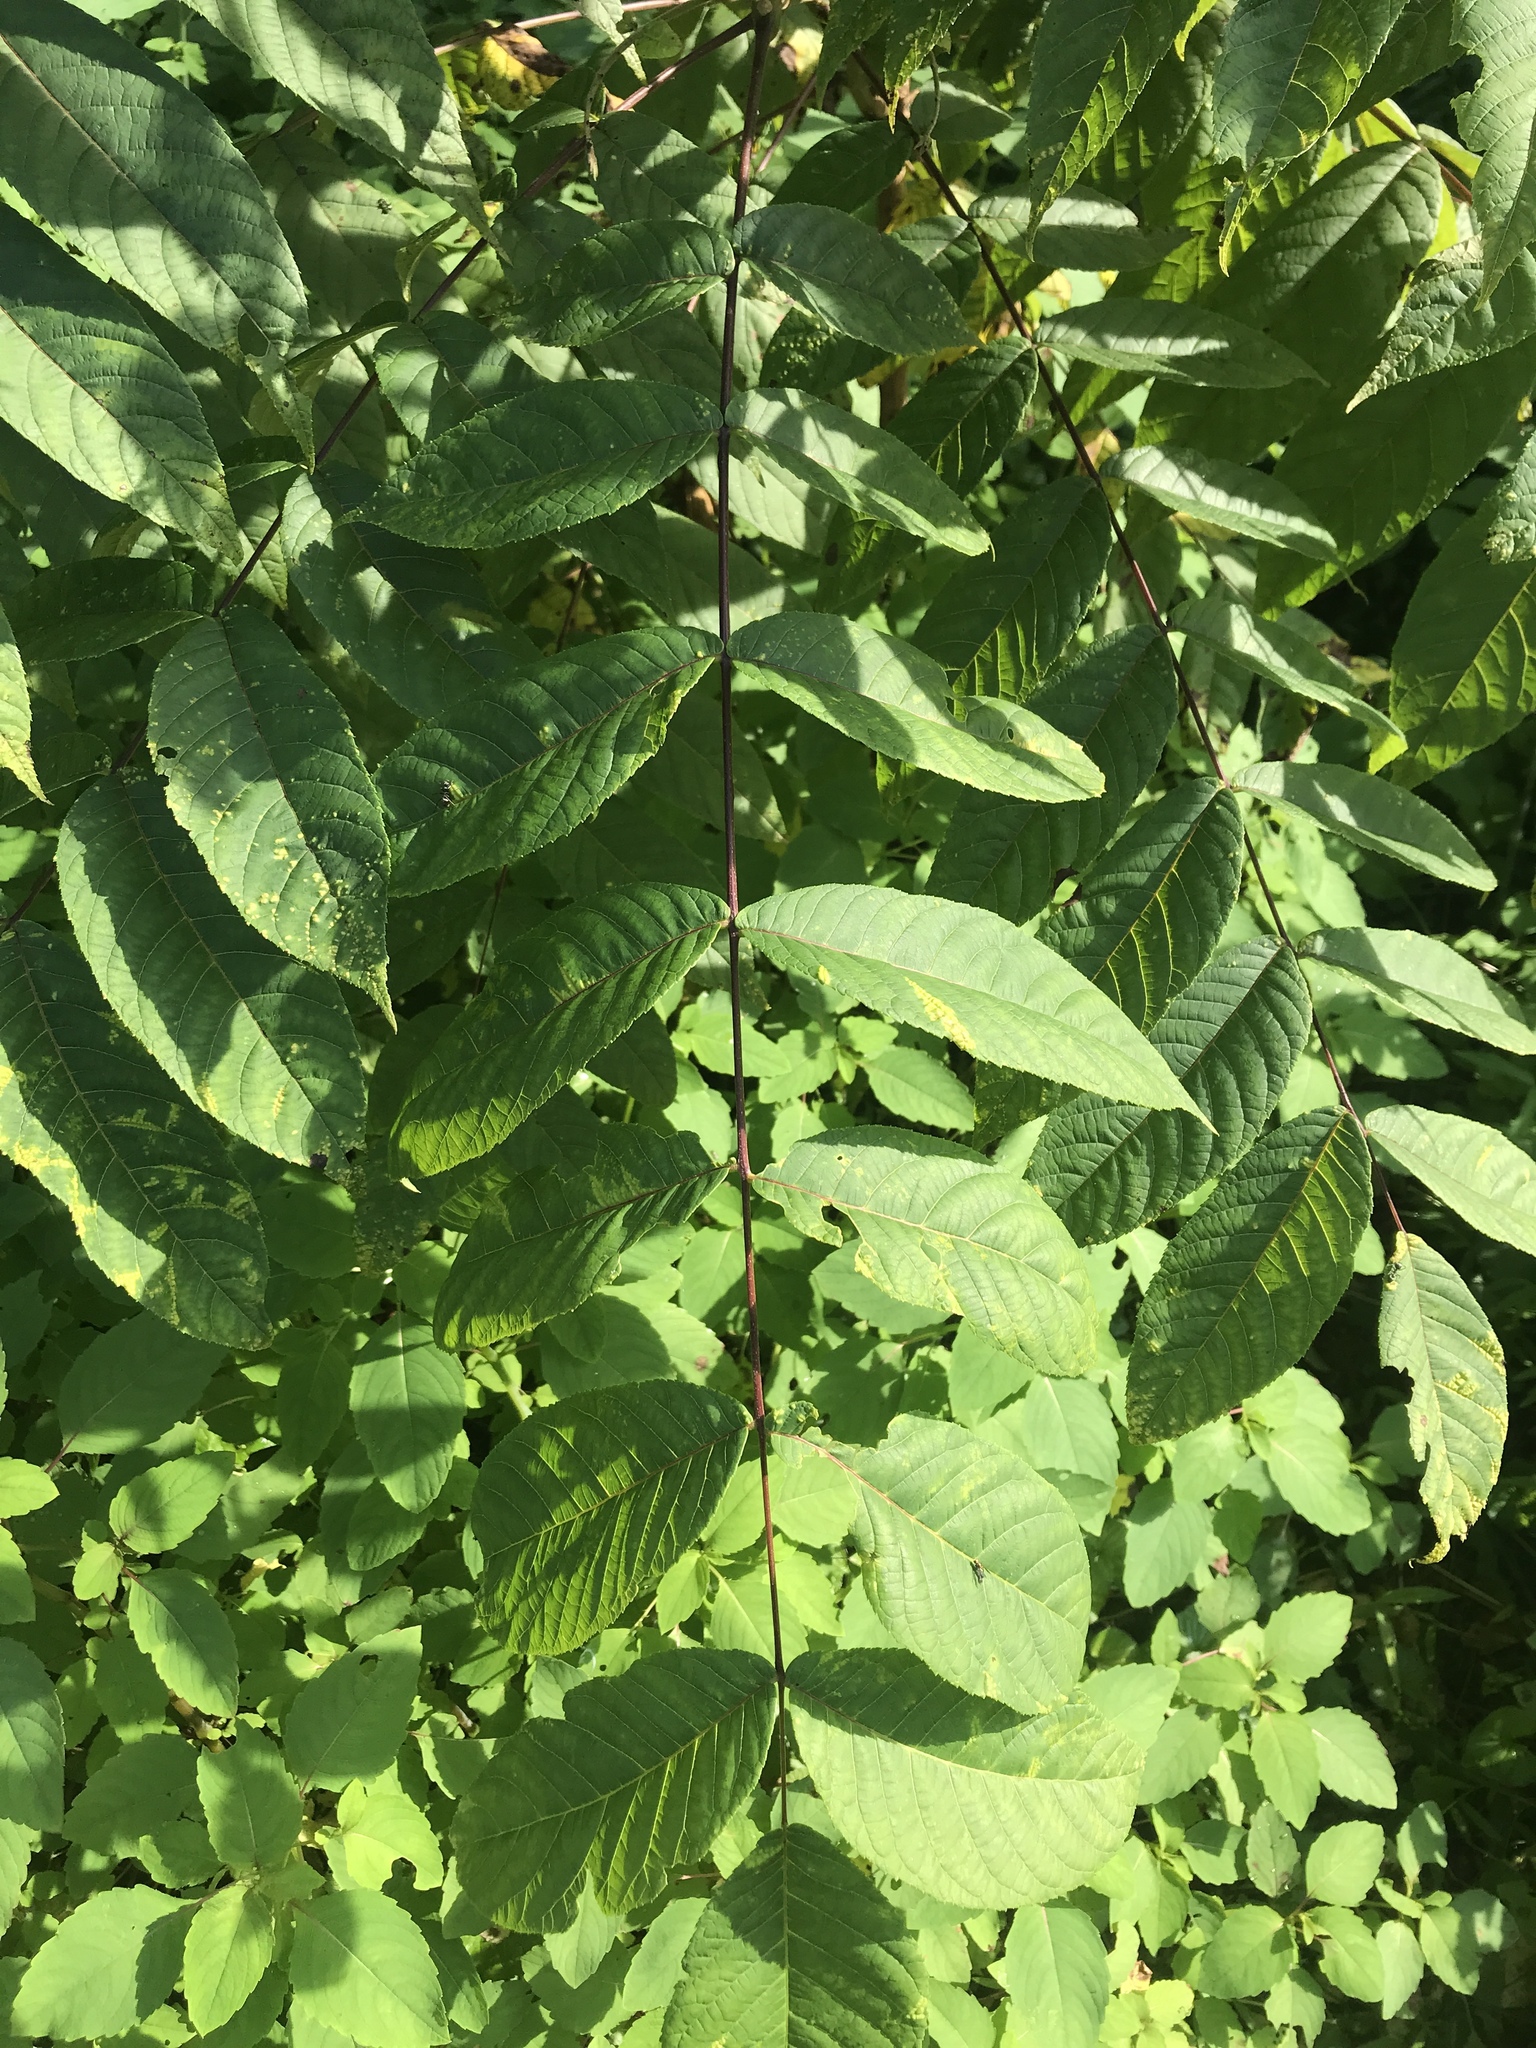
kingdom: Plantae
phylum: Tracheophyta
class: Magnoliopsida
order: Fagales
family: Juglandaceae
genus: Juglans
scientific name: Juglans nigra
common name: Black walnut
